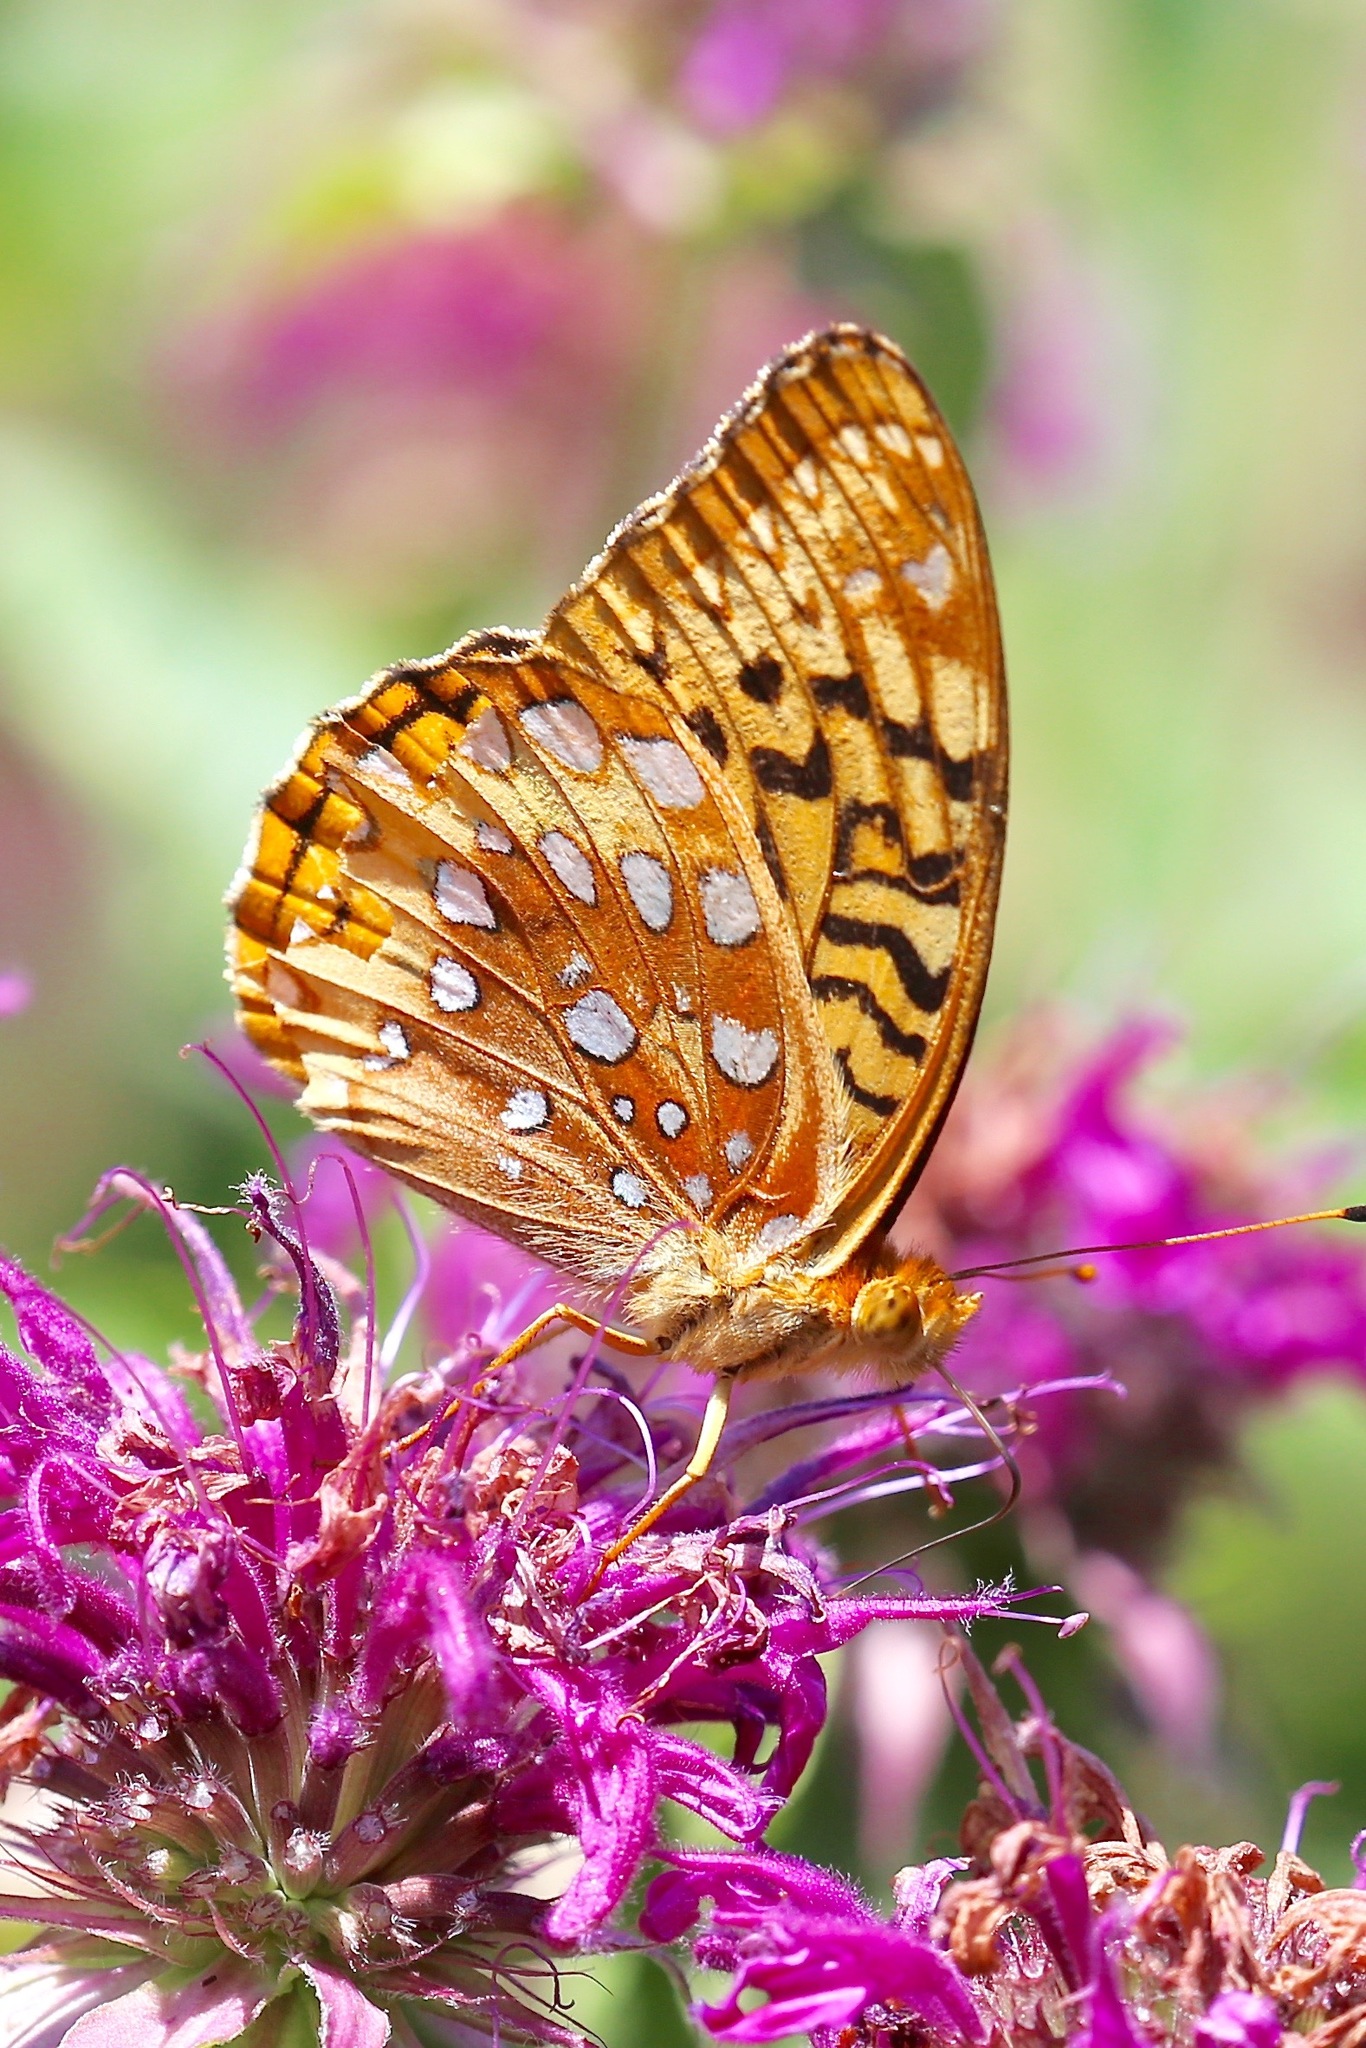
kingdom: Animalia
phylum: Arthropoda
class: Insecta
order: Lepidoptera
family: Nymphalidae
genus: Speyeria
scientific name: Speyeria cybele
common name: Great spangled fritillary
